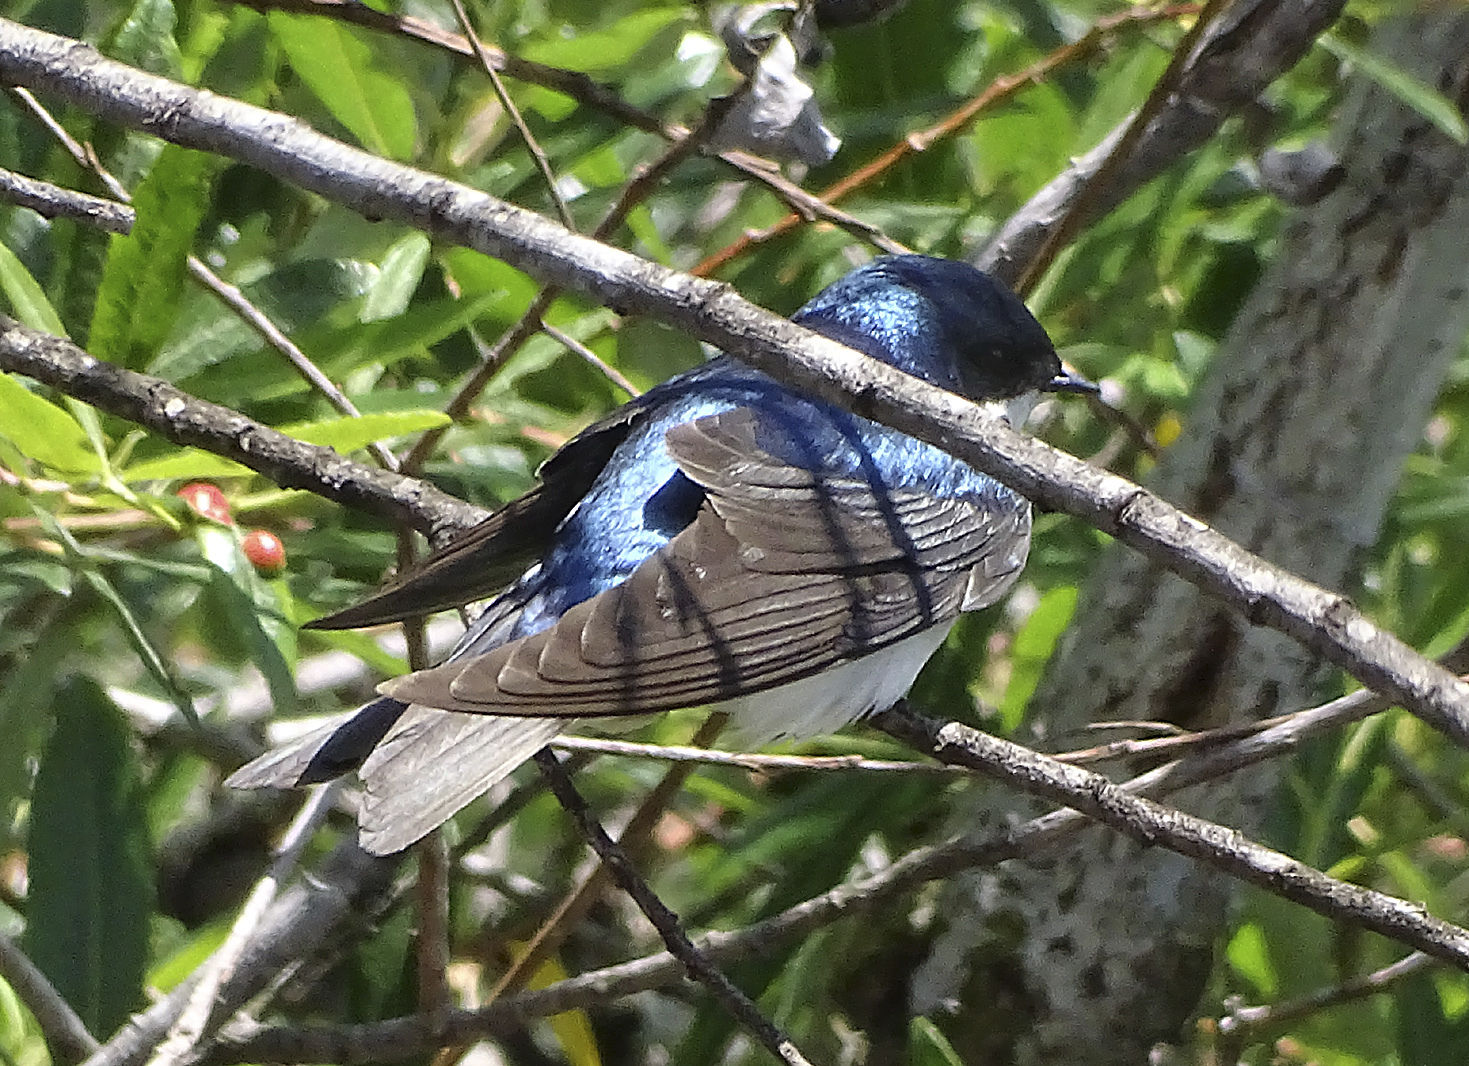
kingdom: Animalia
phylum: Chordata
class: Aves
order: Passeriformes
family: Hirundinidae
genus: Tachycineta
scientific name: Tachycineta bicolor
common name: Tree swallow
